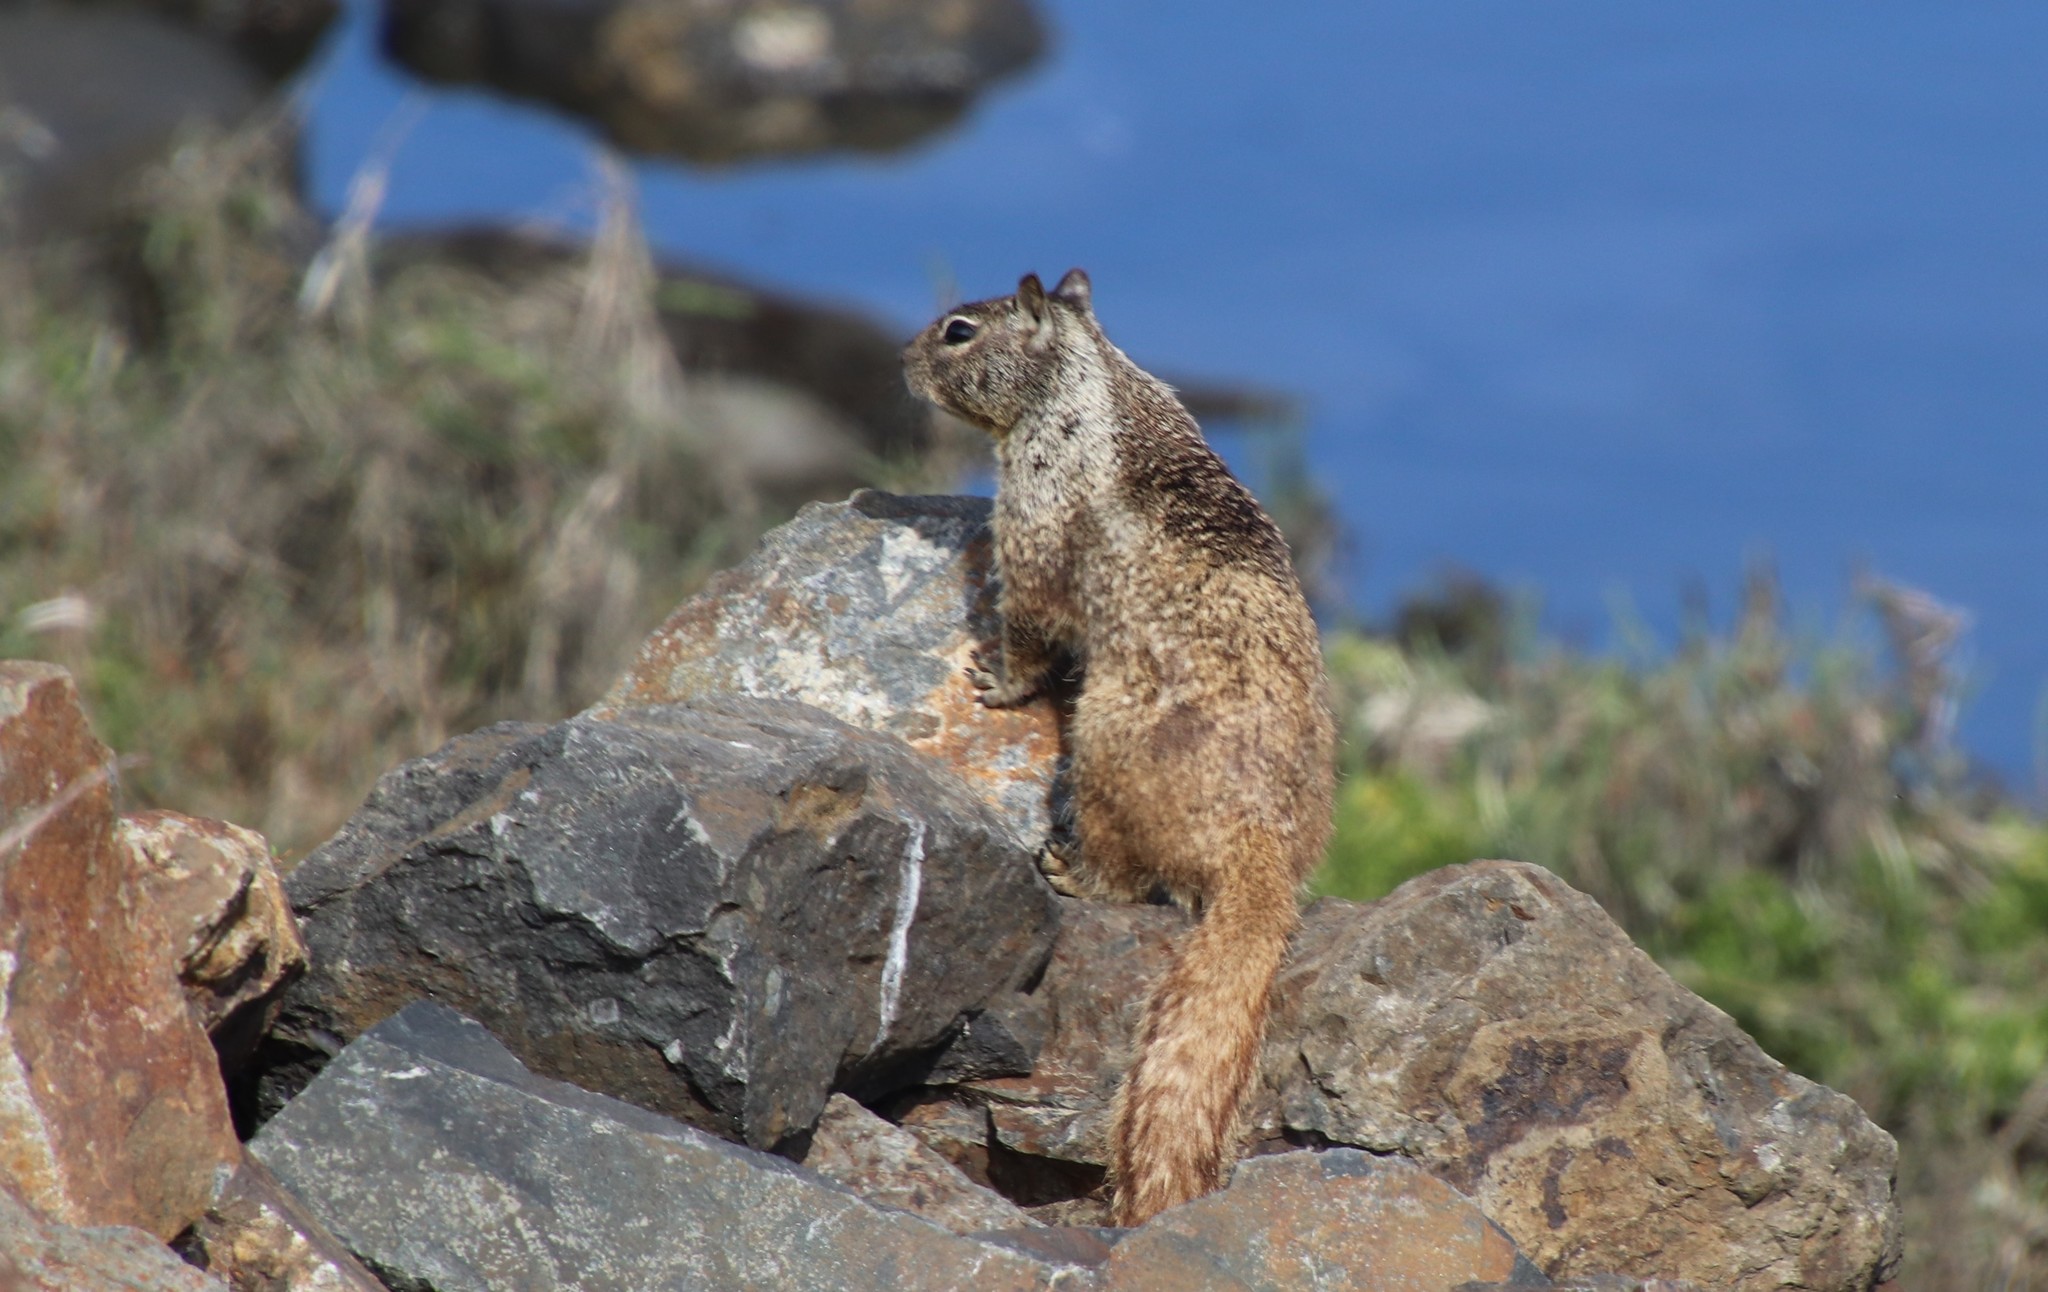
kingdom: Animalia
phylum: Chordata
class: Mammalia
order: Rodentia
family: Sciuridae
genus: Otospermophilus
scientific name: Otospermophilus beecheyi
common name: California ground squirrel
